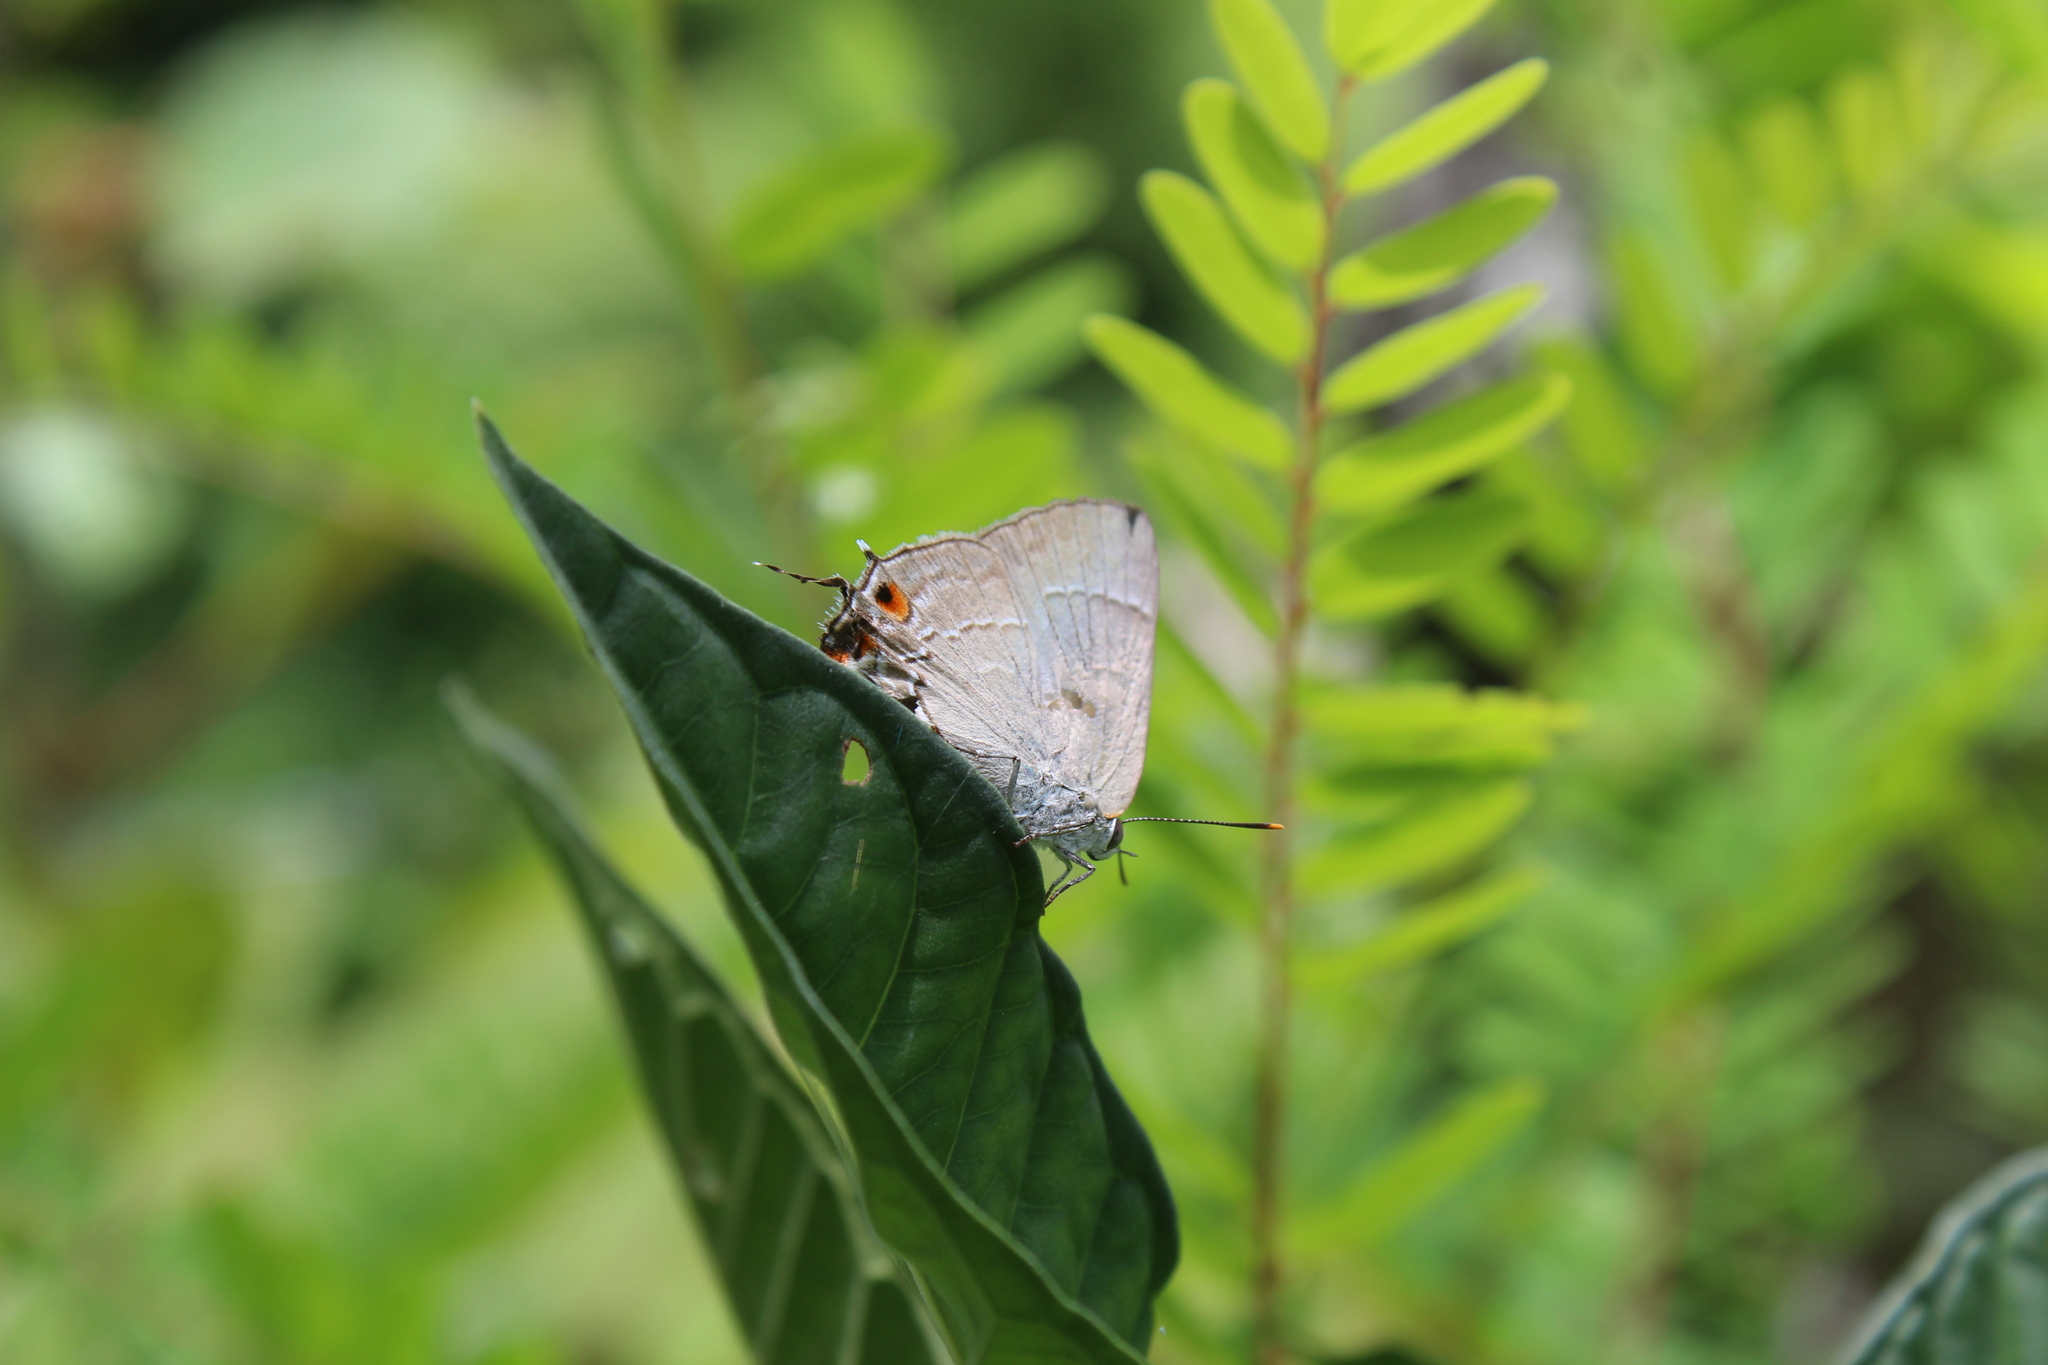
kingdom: Animalia
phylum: Arthropoda
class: Insecta
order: Lepidoptera
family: Lycaenidae
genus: Thecla
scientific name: Thecla marius
